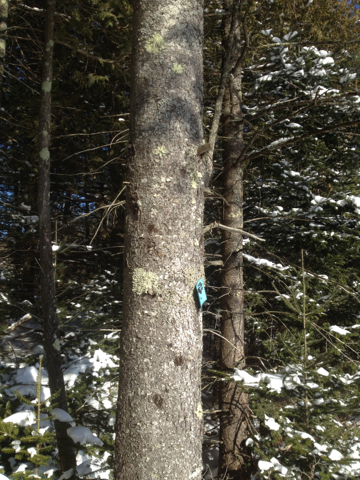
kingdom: Plantae
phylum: Tracheophyta
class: Pinopsida
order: Pinales
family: Pinaceae
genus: Picea
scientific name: Picea rubens
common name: Red spruce
